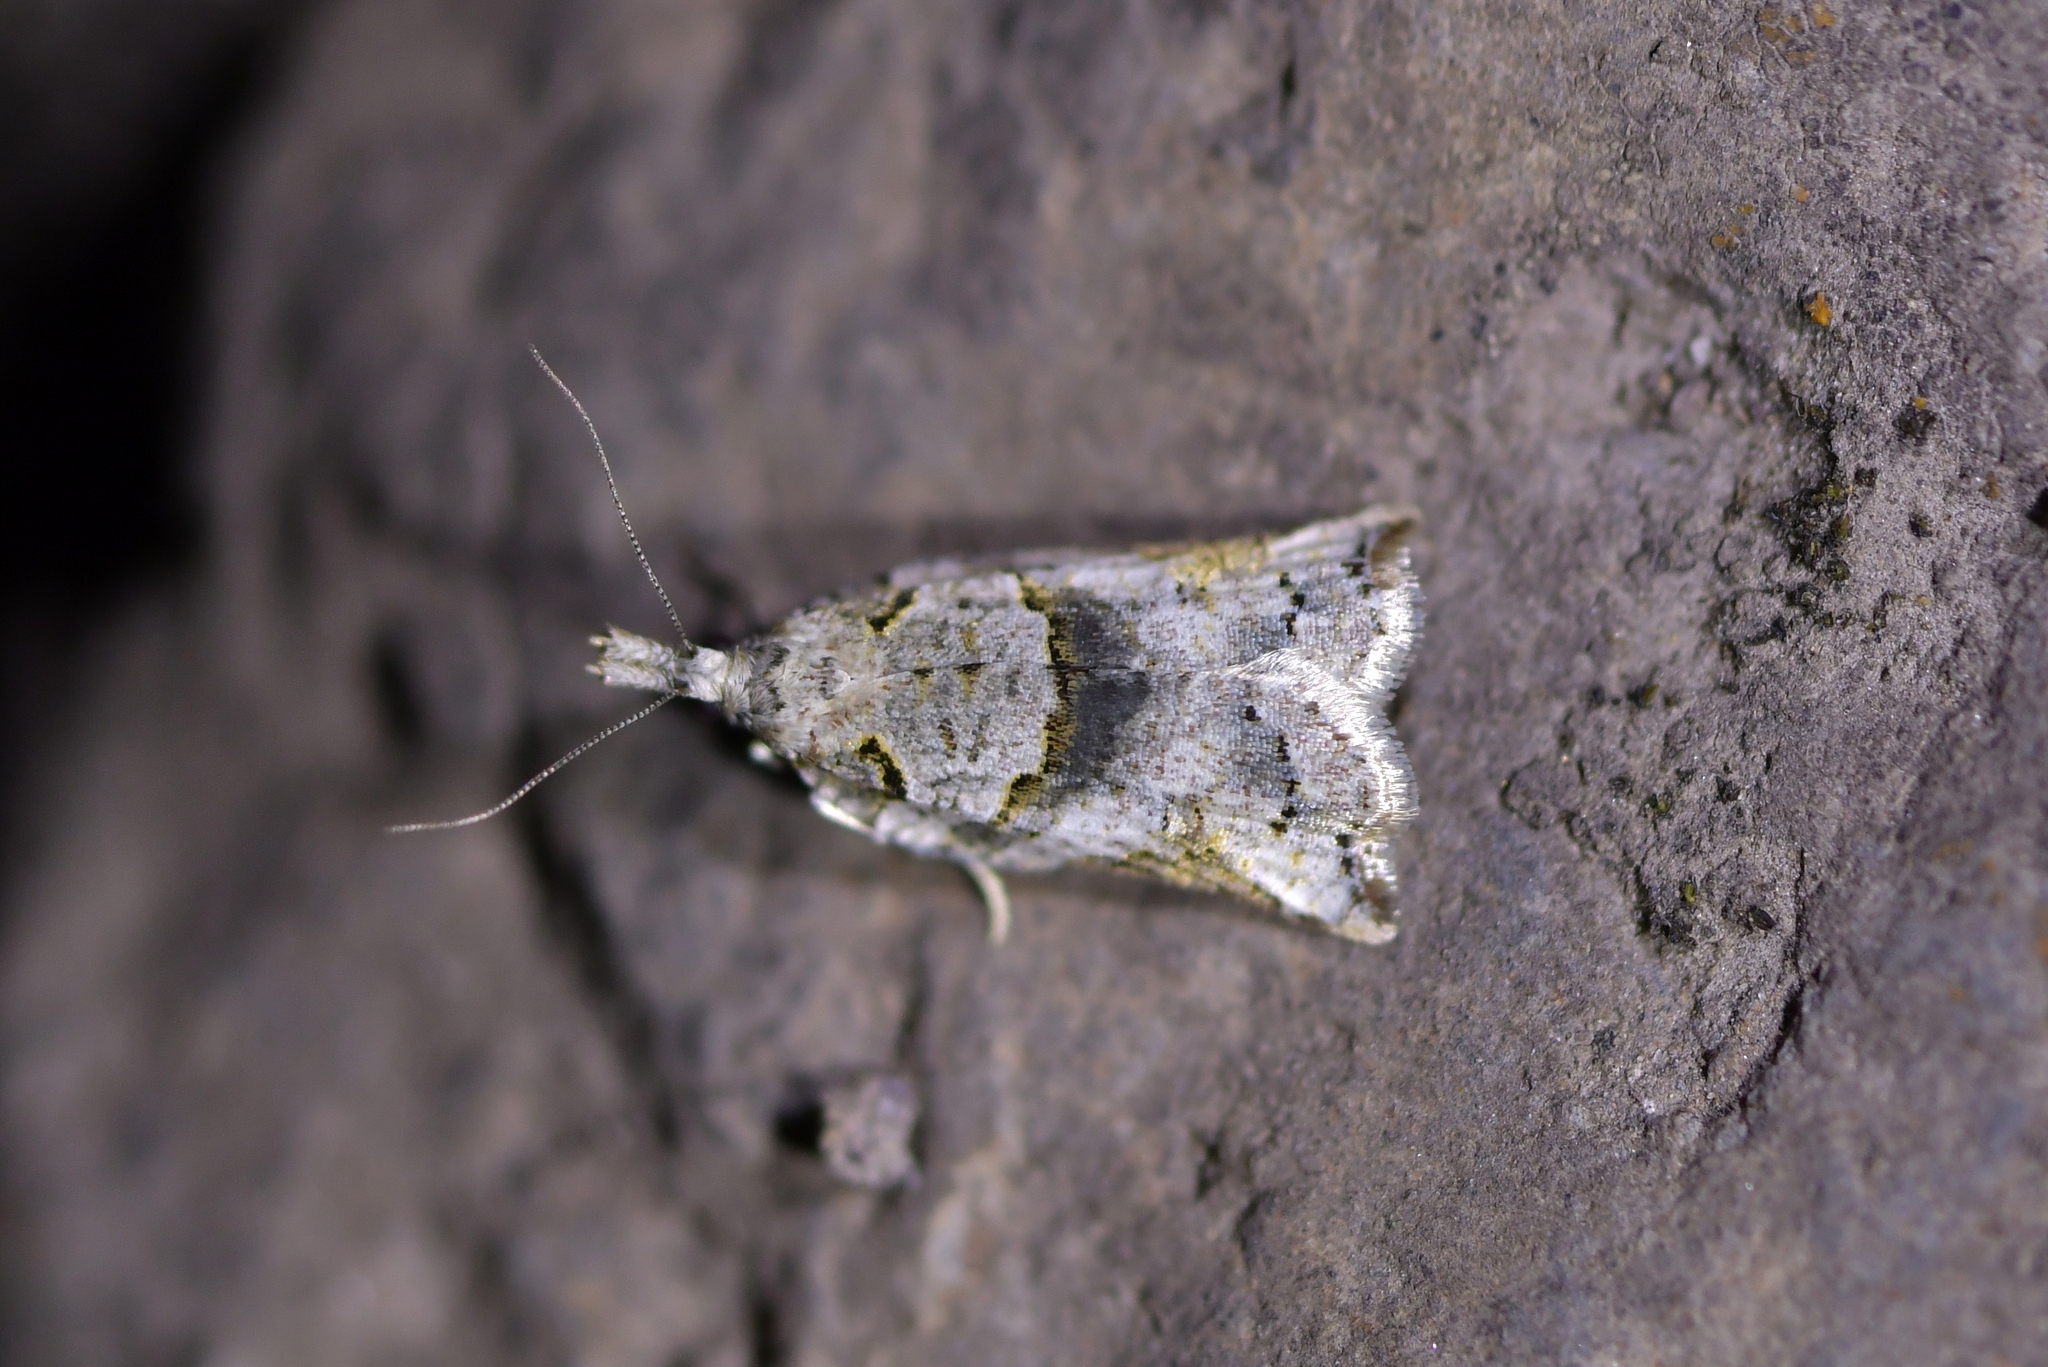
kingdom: Animalia
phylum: Arthropoda
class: Insecta
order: Lepidoptera
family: Tortricidae
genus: Harmologa
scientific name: Harmologa amplexana
